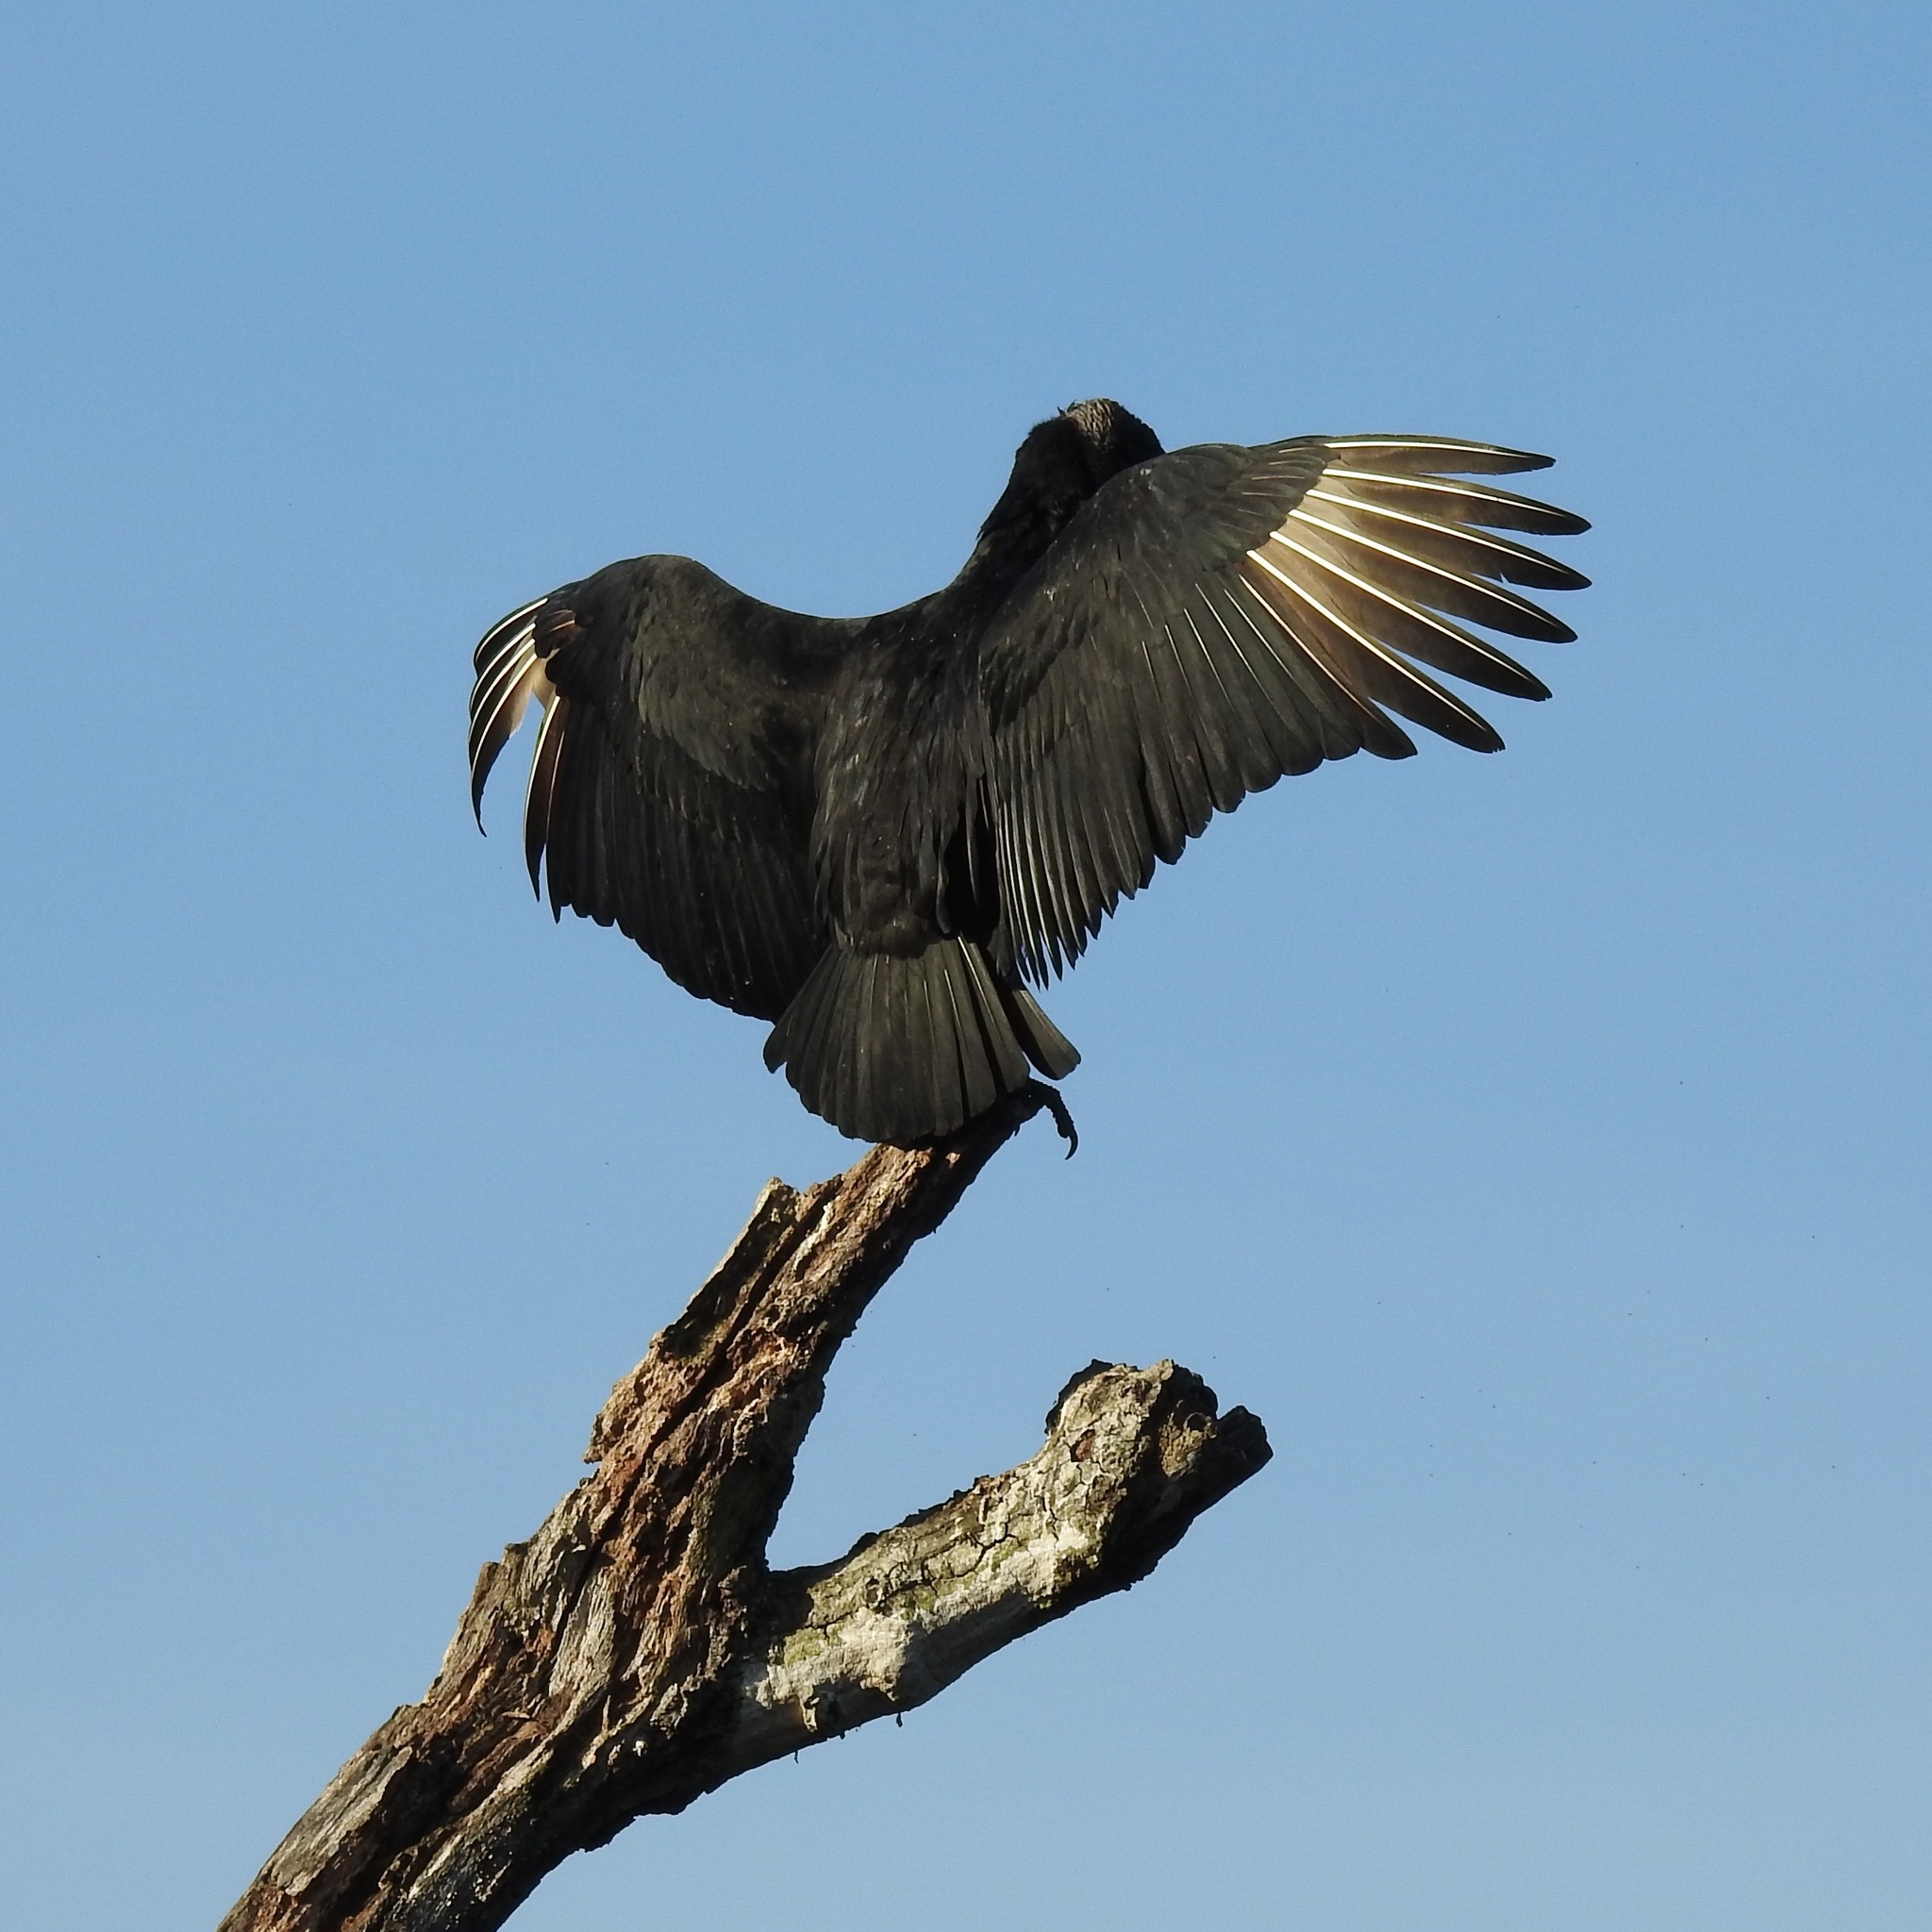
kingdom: Animalia
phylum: Chordata
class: Aves
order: Accipitriformes
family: Cathartidae
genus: Coragyps
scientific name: Coragyps atratus
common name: Black vulture
